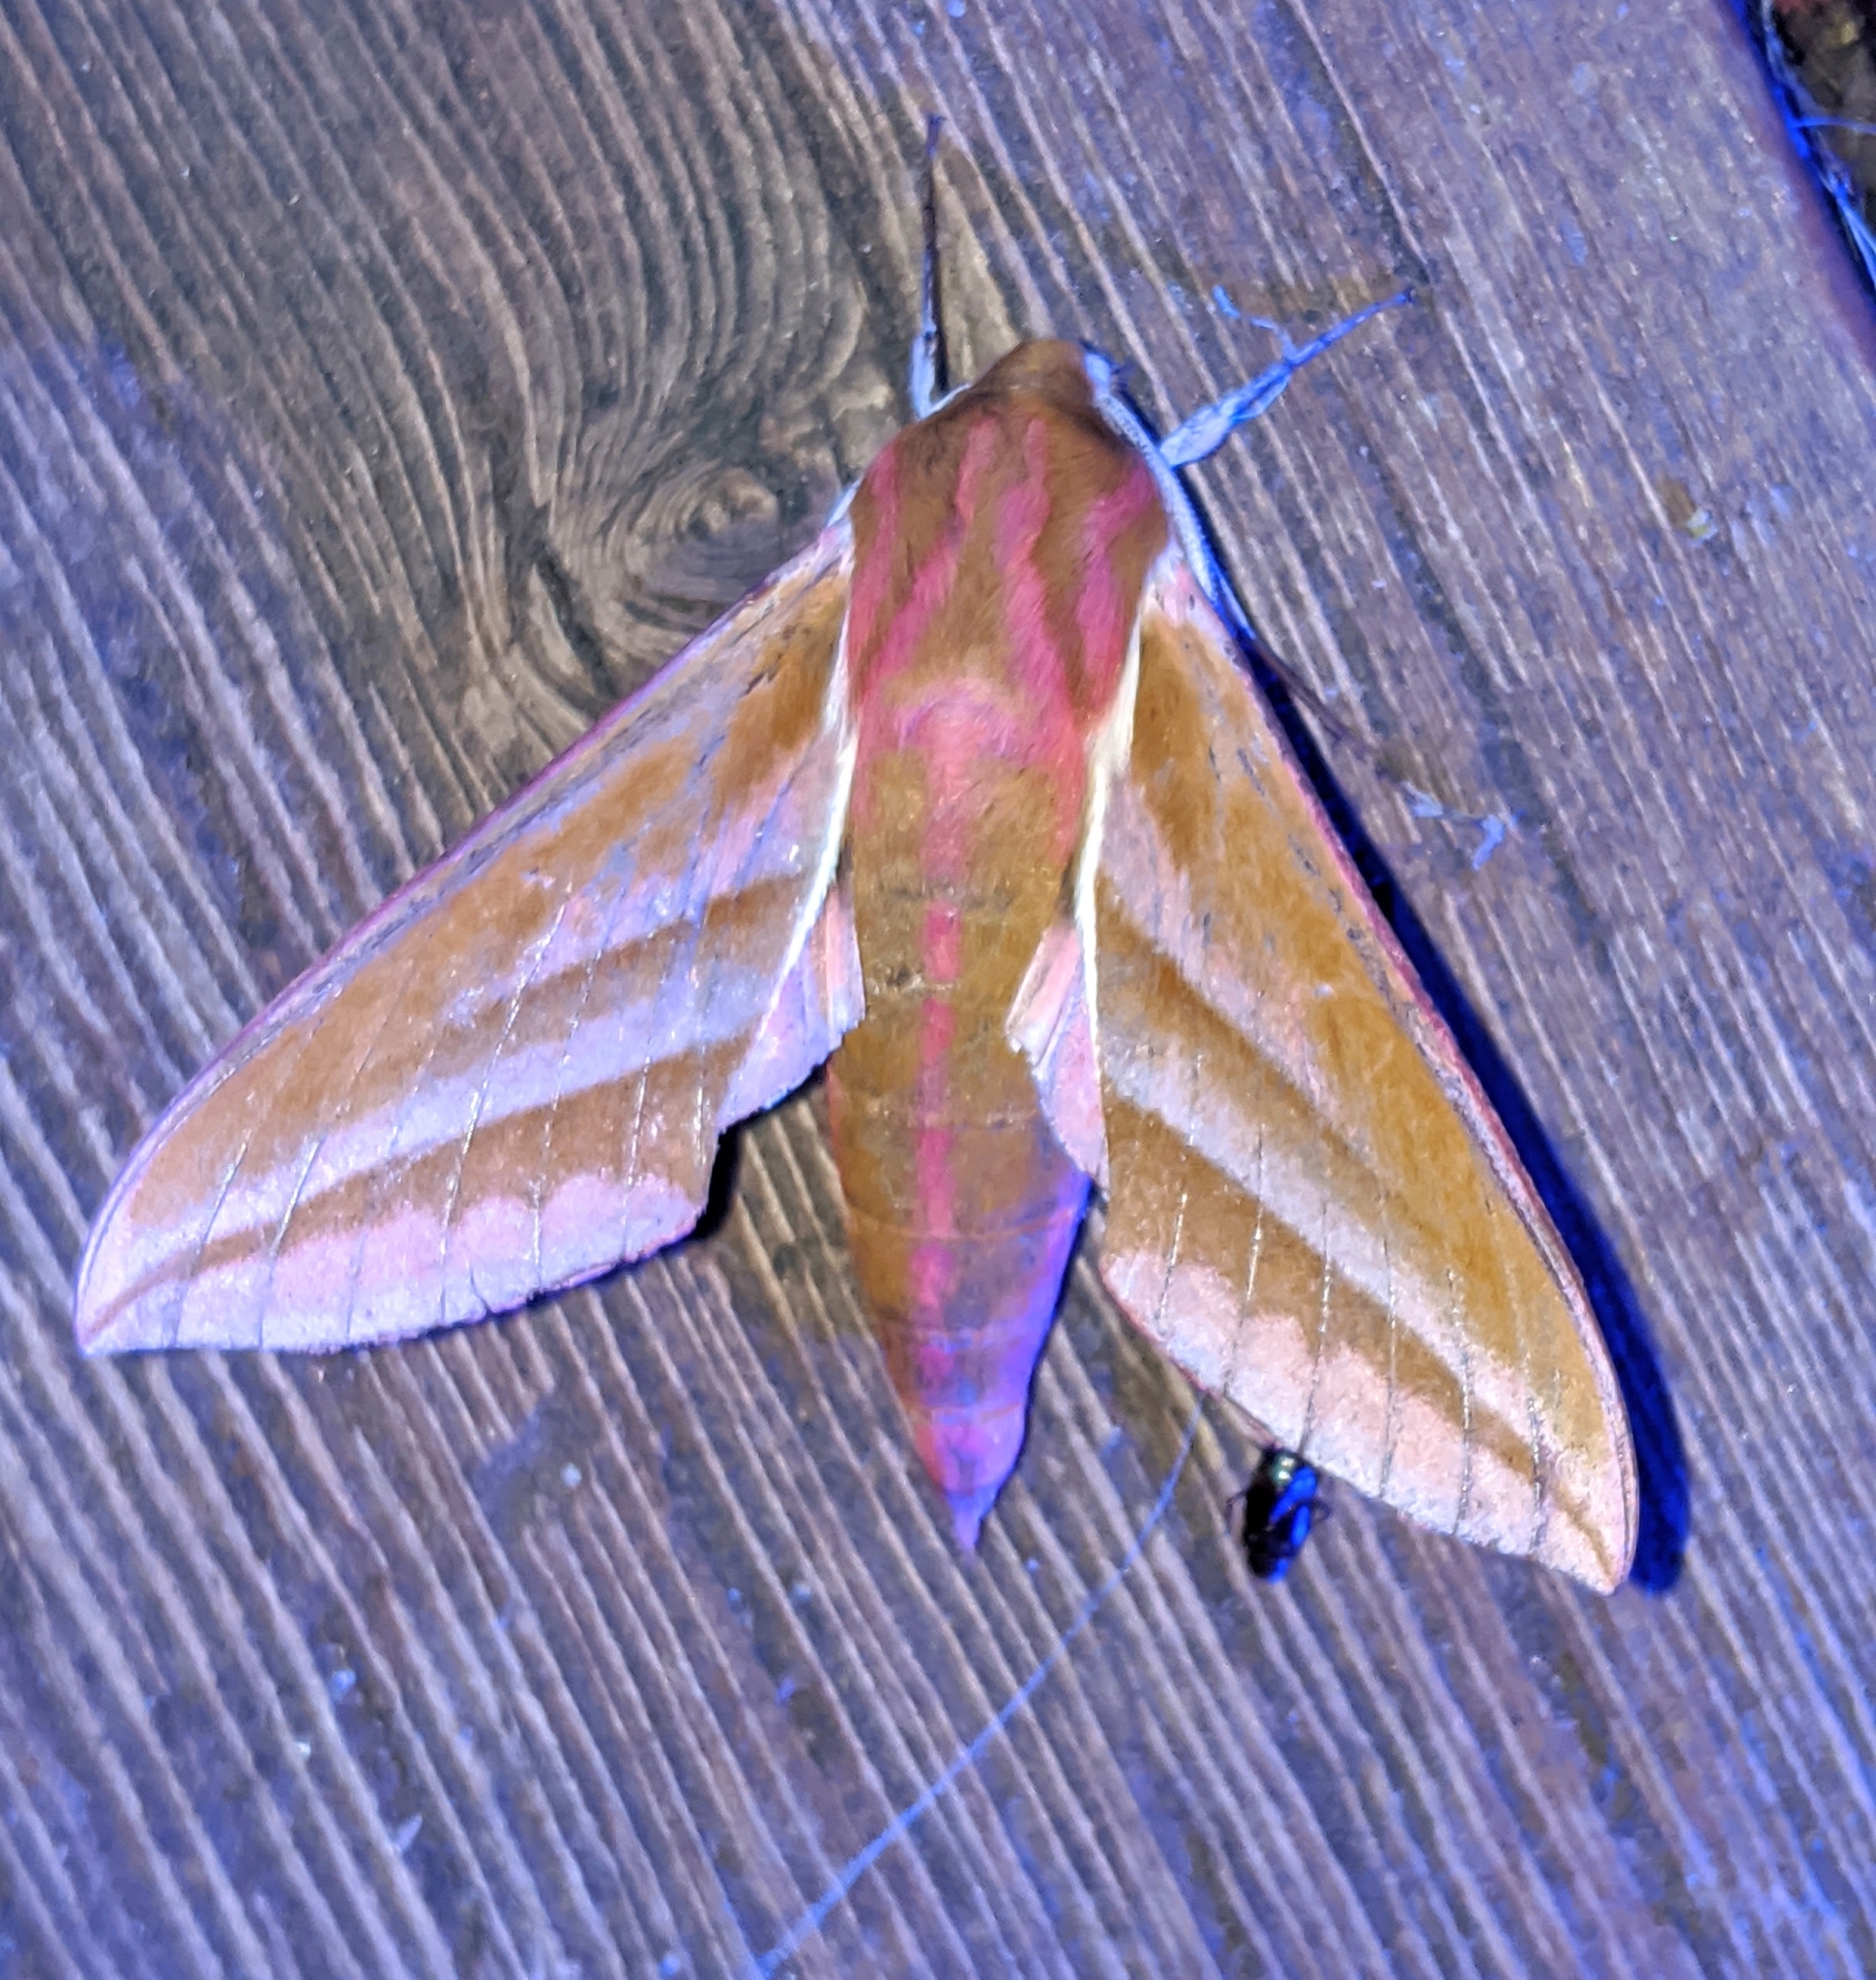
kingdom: Animalia
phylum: Arthropoda
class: Insecta
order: Lepidoptera
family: Sphingidae
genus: Deilephila
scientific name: Deilephila elpenor
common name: Elephant hawk-moth
